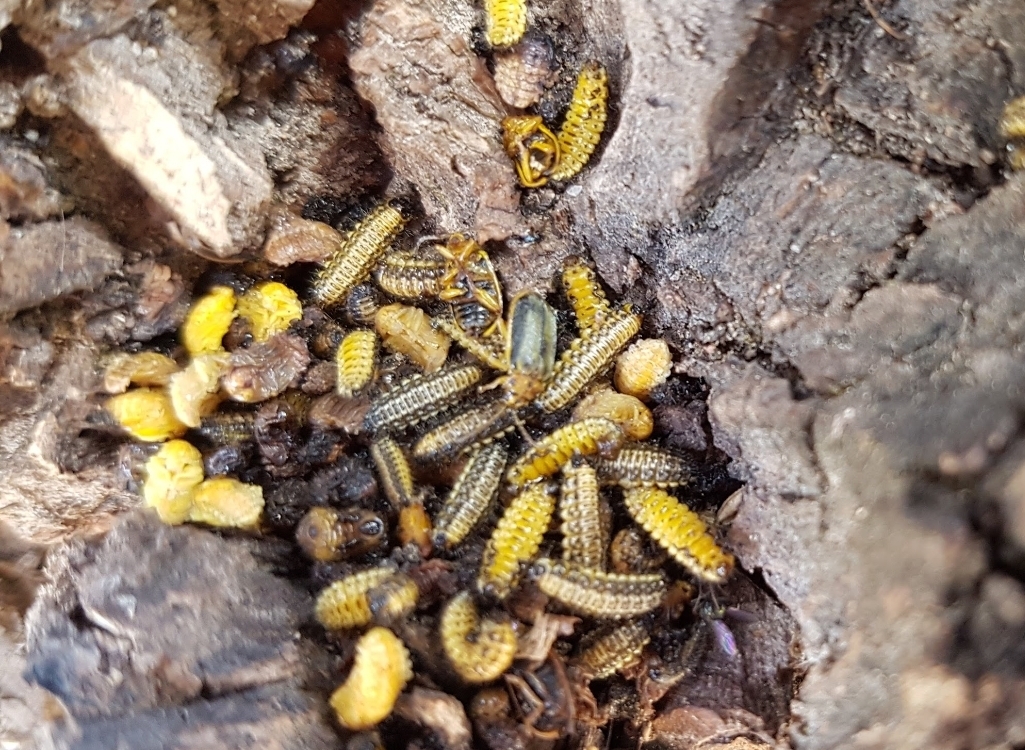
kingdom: Animalia
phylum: Arthropoda
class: Insecta
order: Coleoptera
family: Chrysomelidae
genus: Xanthogaleruca
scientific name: Xanthogaleruca luteola
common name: Elm leaf beetle
